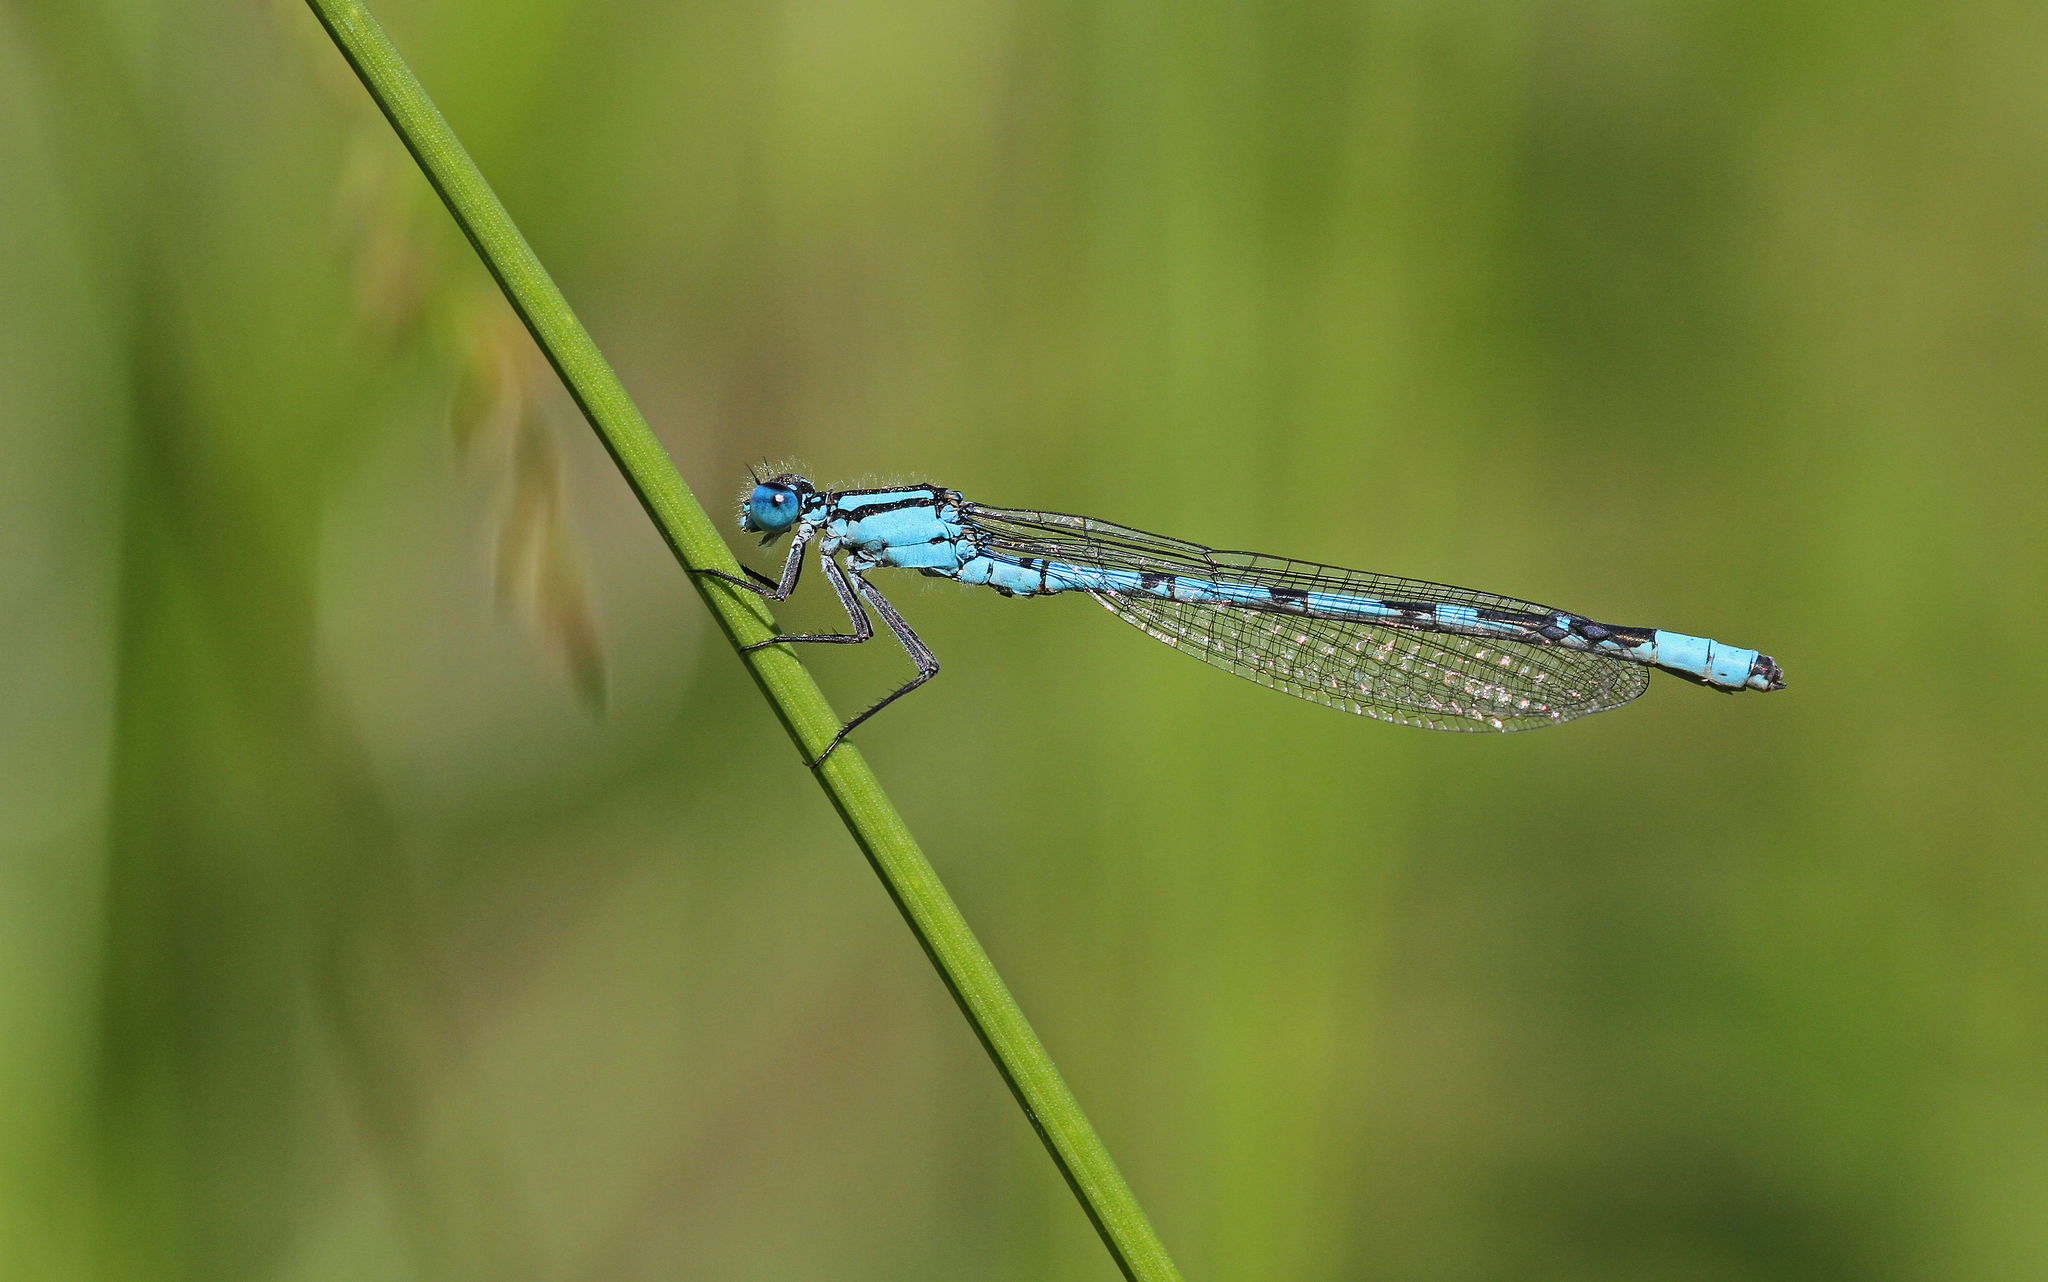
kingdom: Animalia
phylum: Arthropoda
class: Insecta
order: Odonata
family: Coenagrionidae
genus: Enallagma
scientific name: Enallagma cyathigerum
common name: Common blue damselfly
